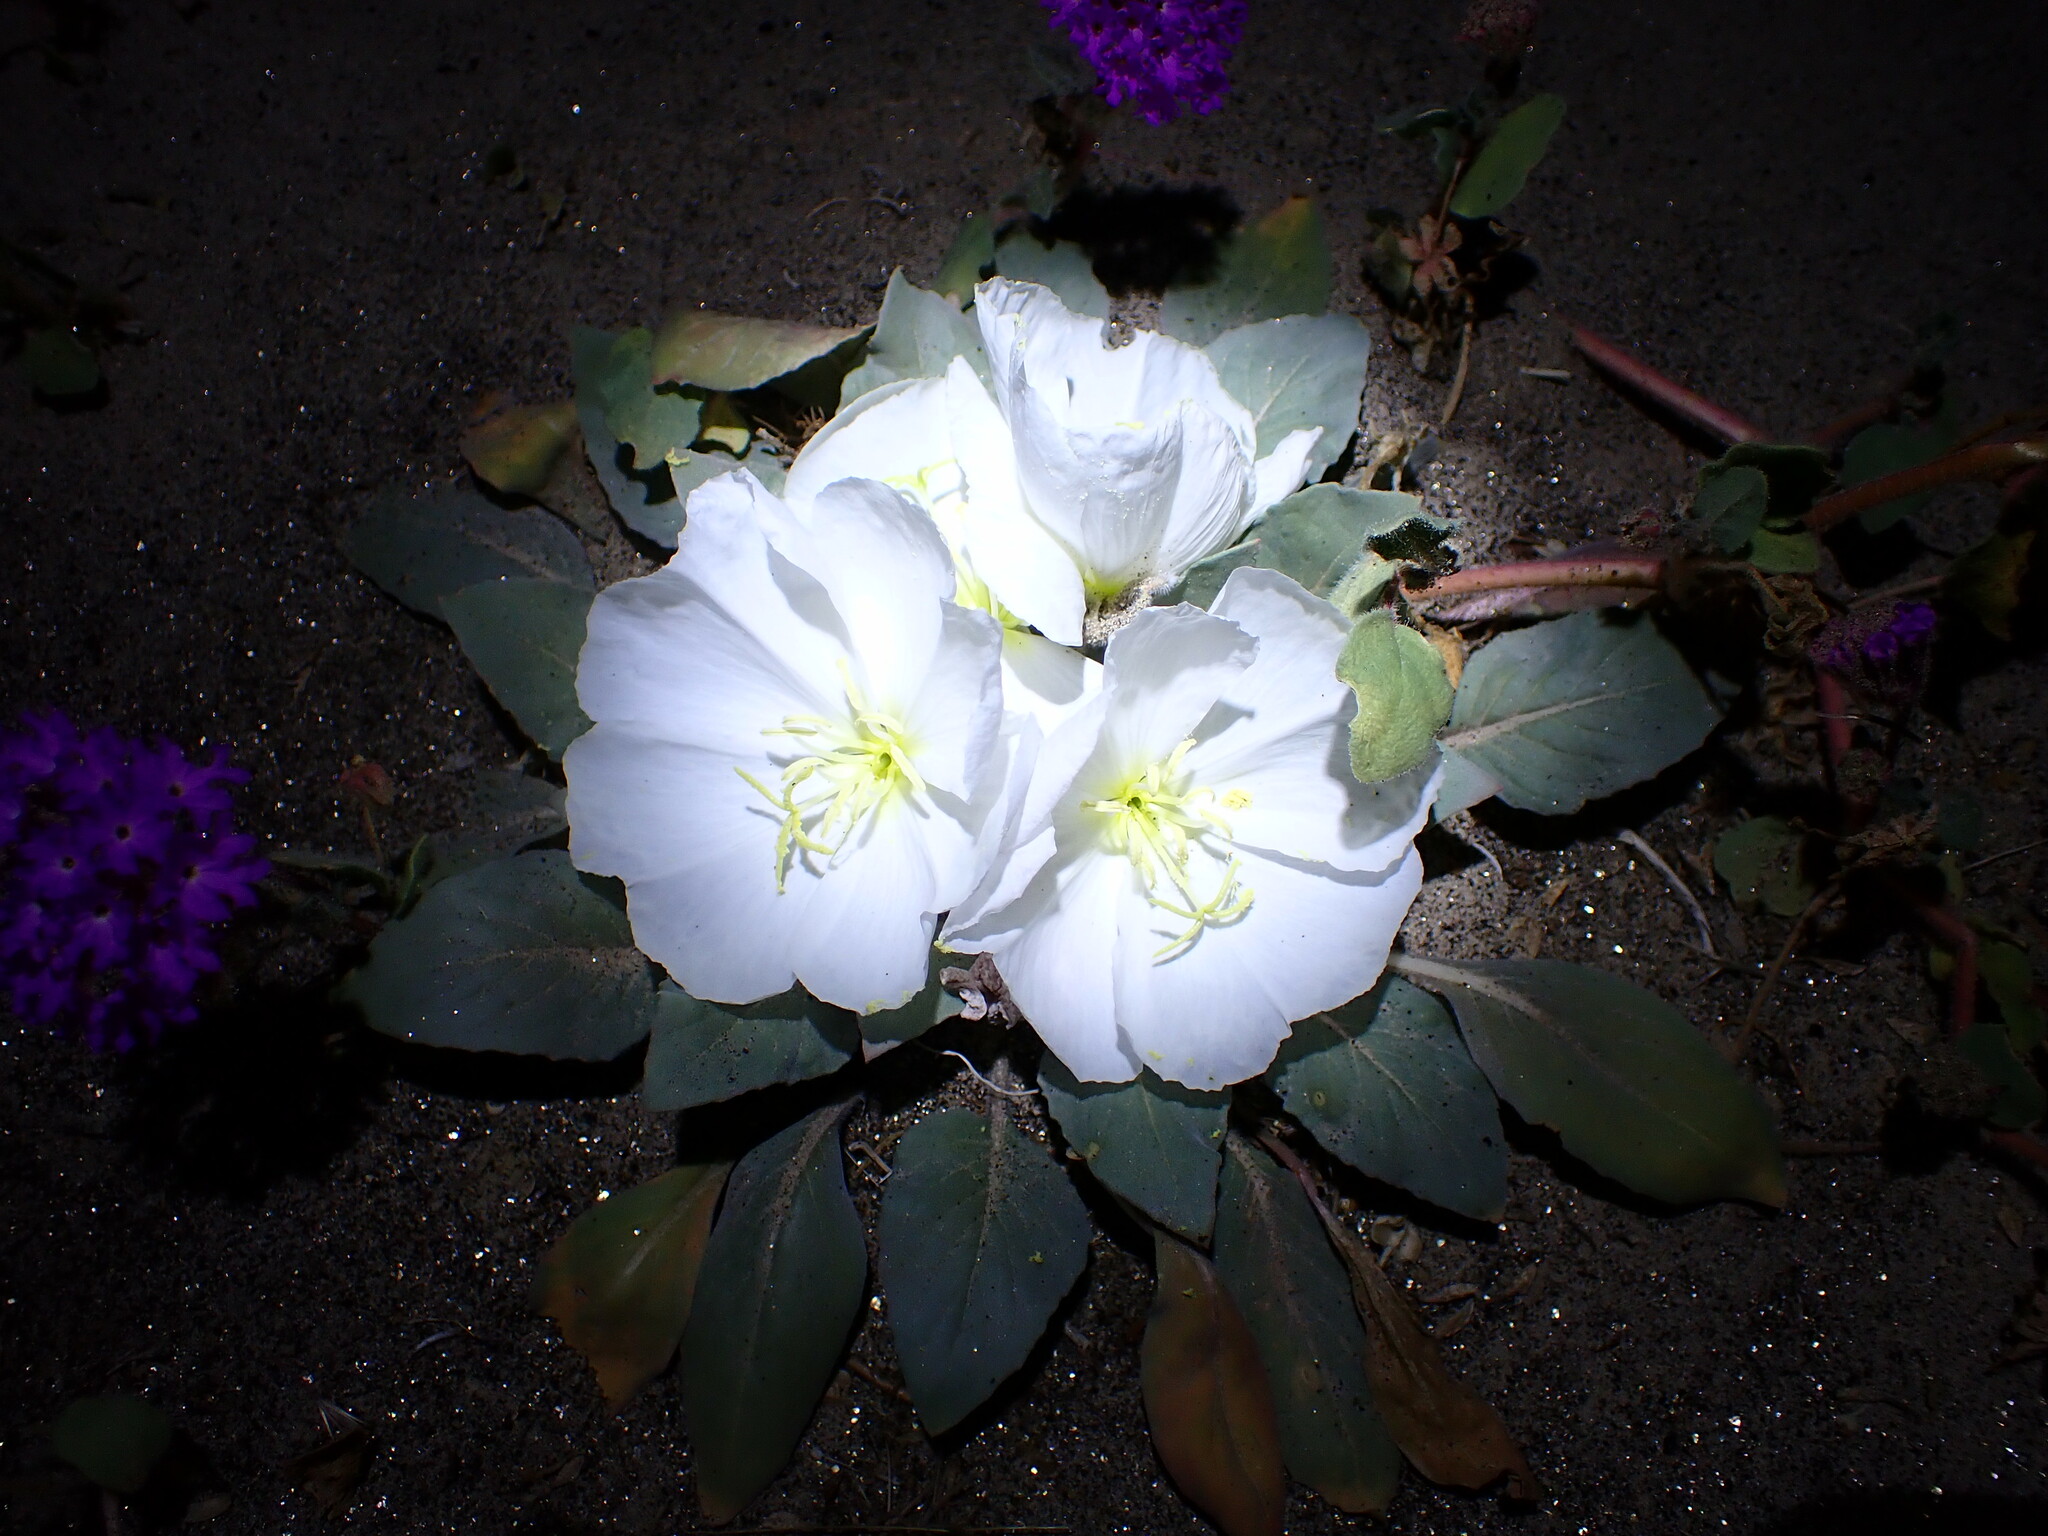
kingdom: Plantae
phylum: Tracheophyta
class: Magnoliopsida
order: Myrtales
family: Onagraceae
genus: Oenothera
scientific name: Oenothera deltoides
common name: Basket evening-primrose
